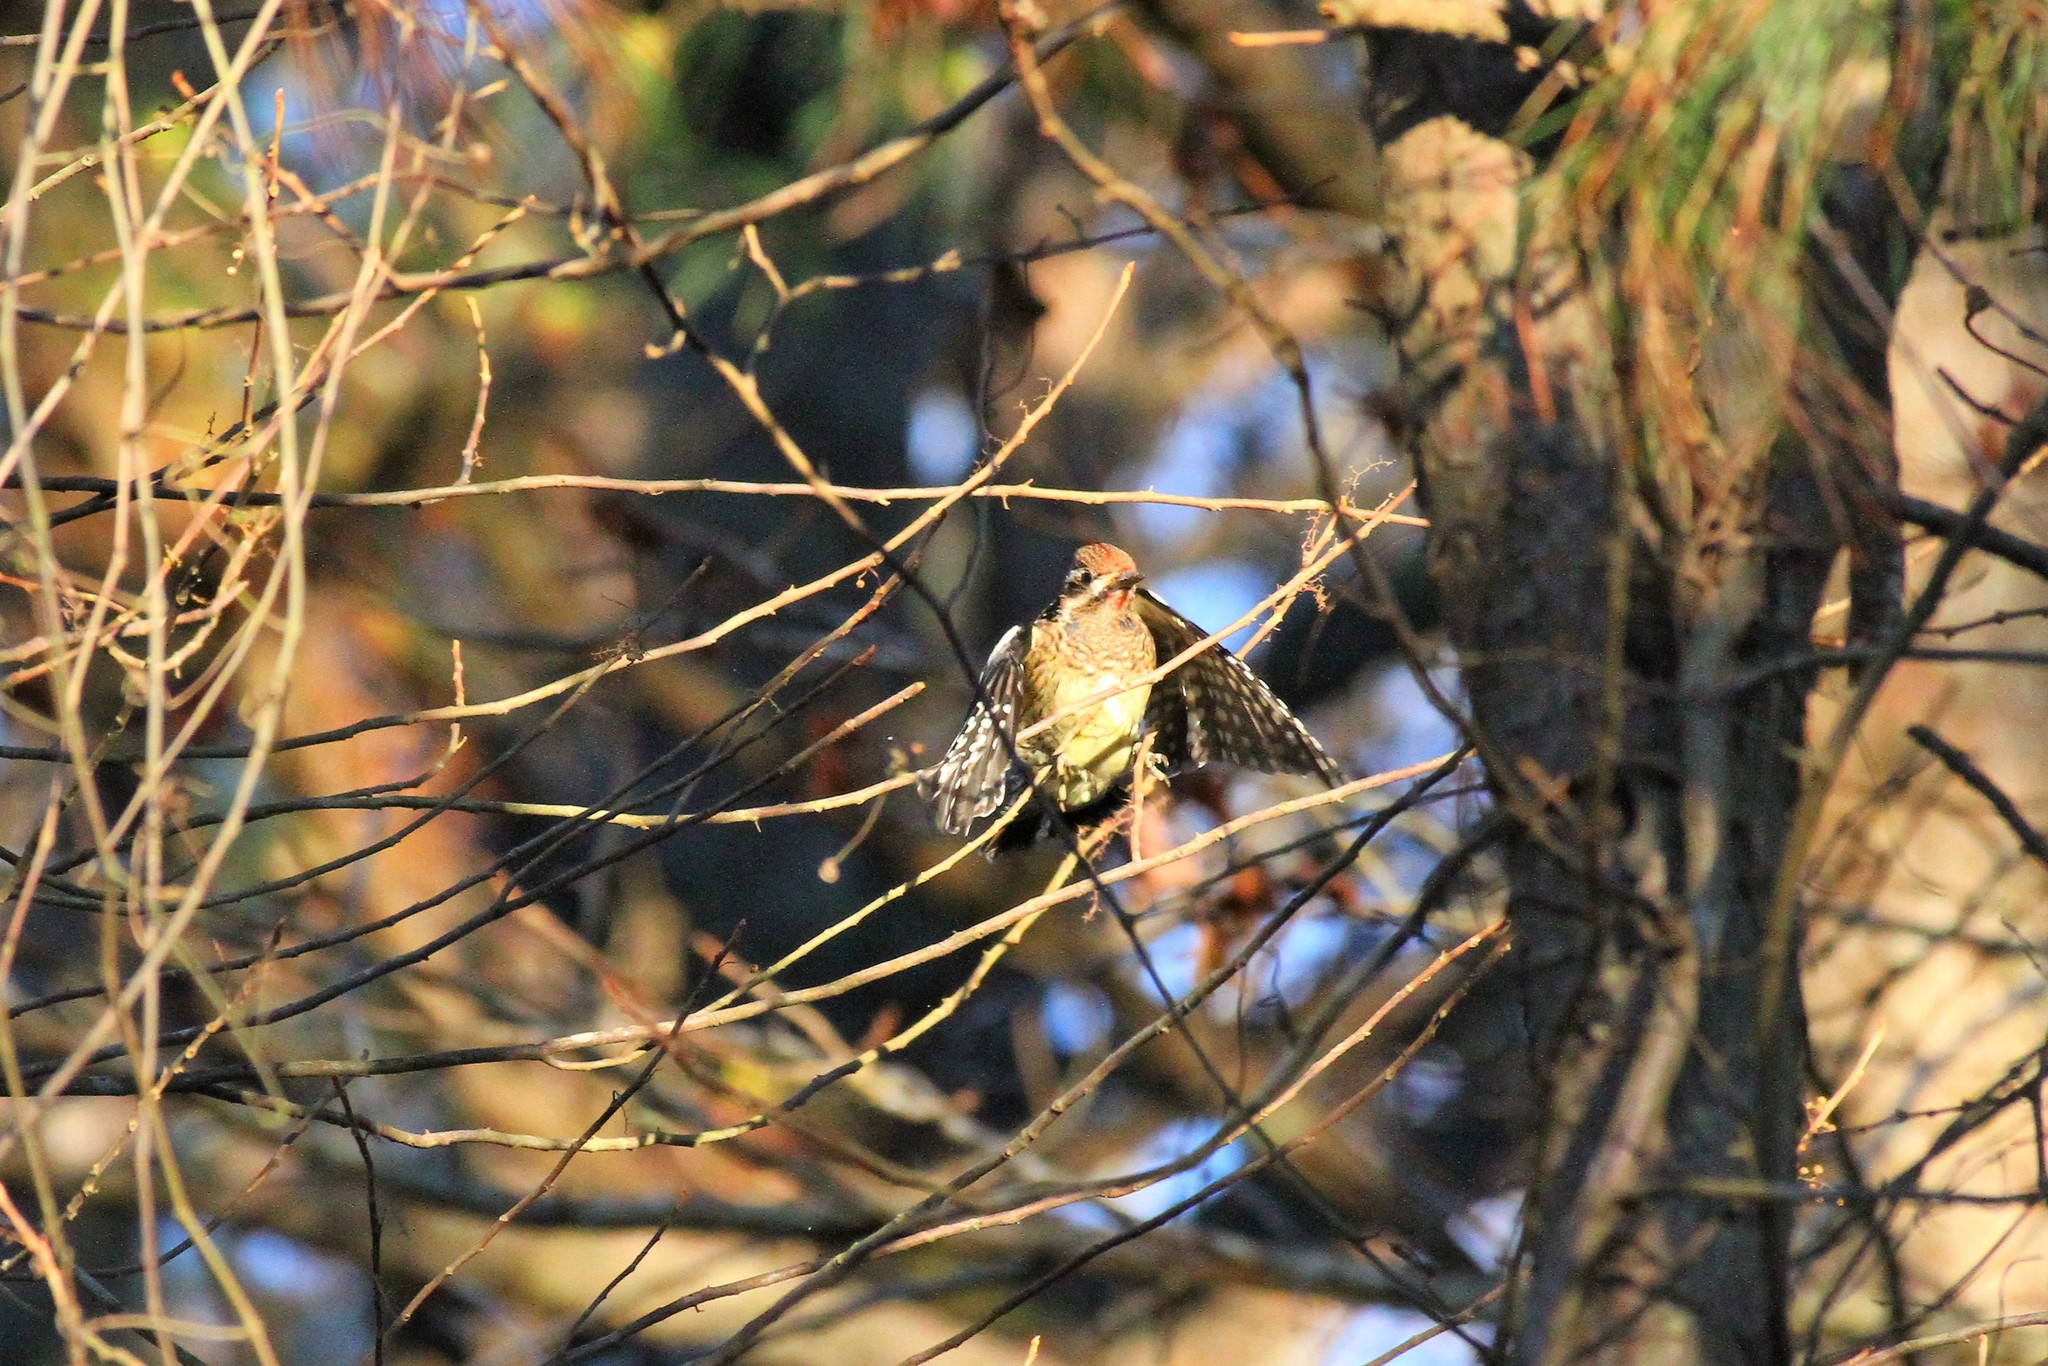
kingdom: Animalia
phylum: Chordata
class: Aves
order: Piciformes
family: Picidae
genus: Sphyrapicus
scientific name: Sphyrapicus varius
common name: Yellow-bellied sapsucker
